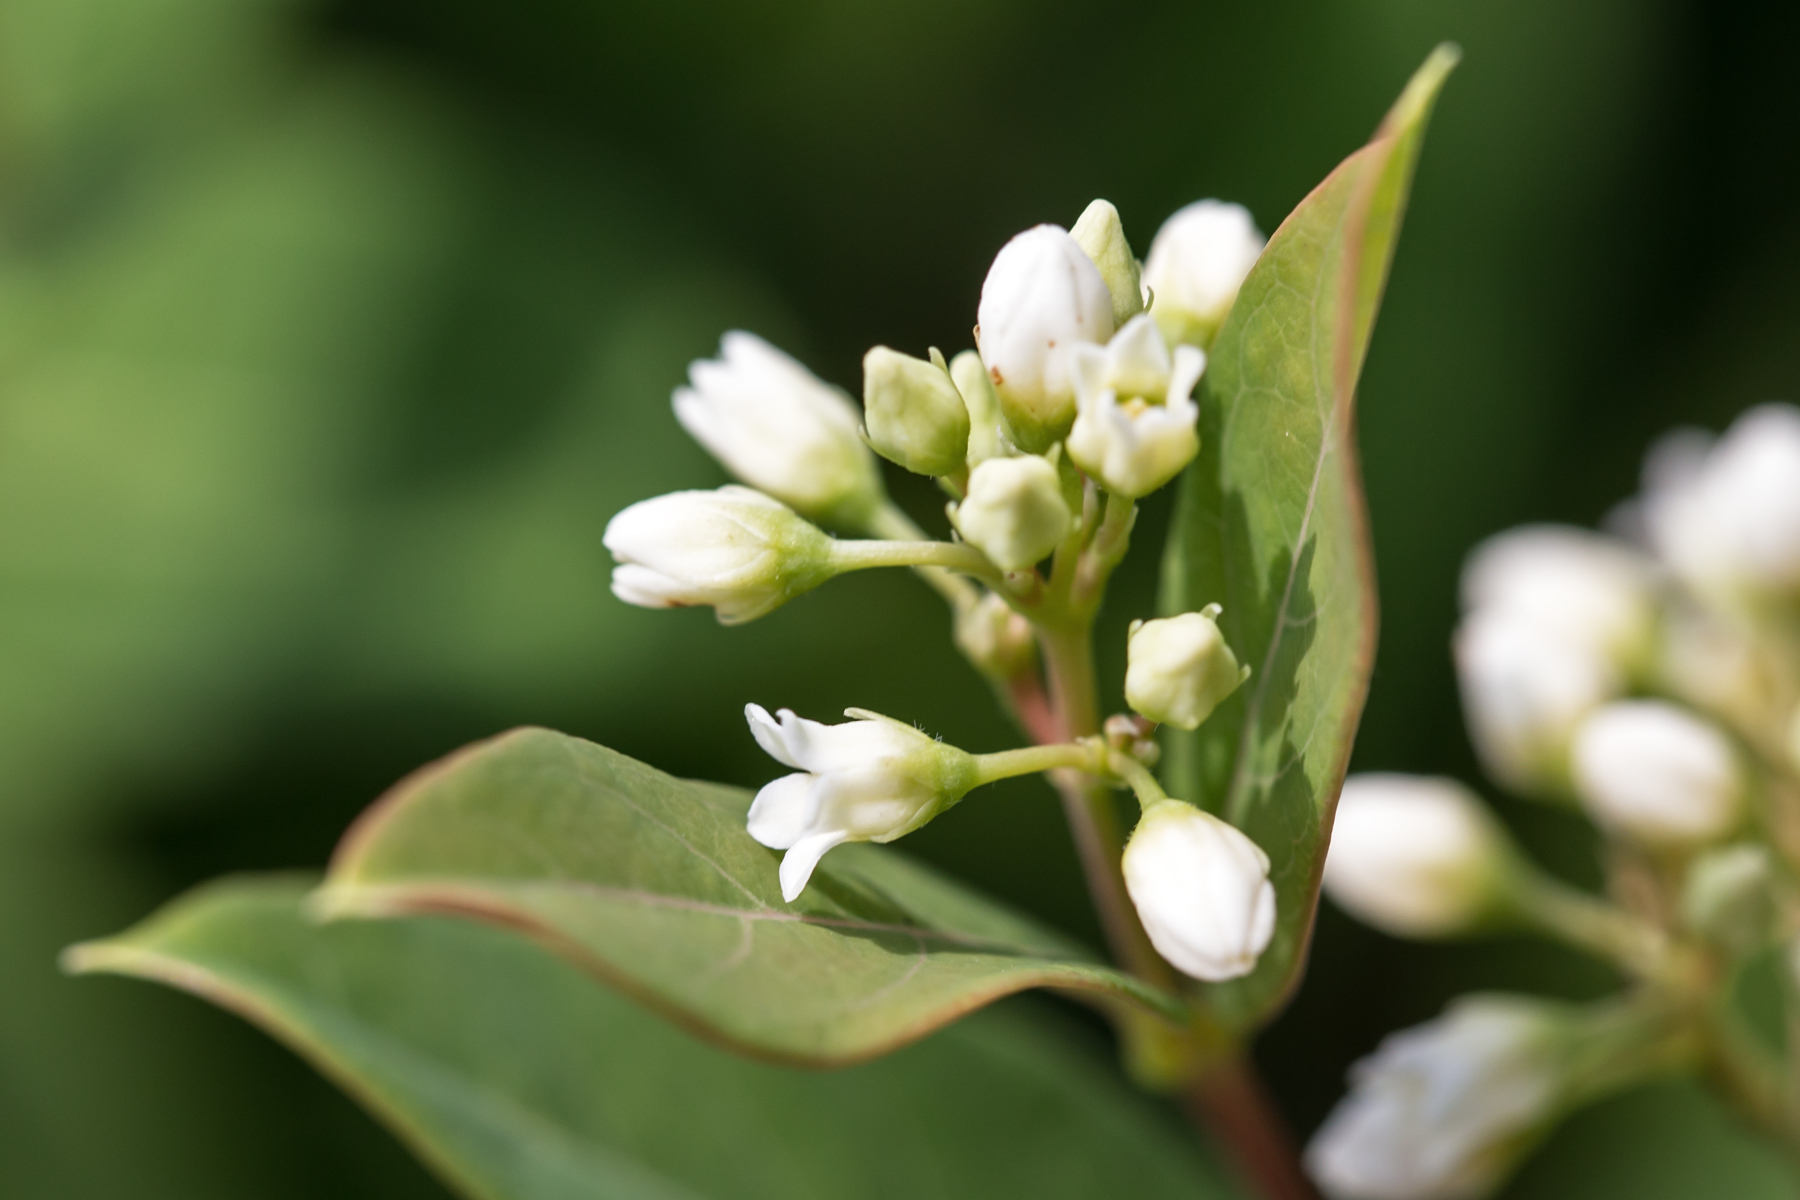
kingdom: Plantae
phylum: Tracheophyta
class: Magnoliopsida
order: Gentianales
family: Apocynaceae
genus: Apocynum
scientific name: Apocynum cannabinum
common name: Hemp dogbane
